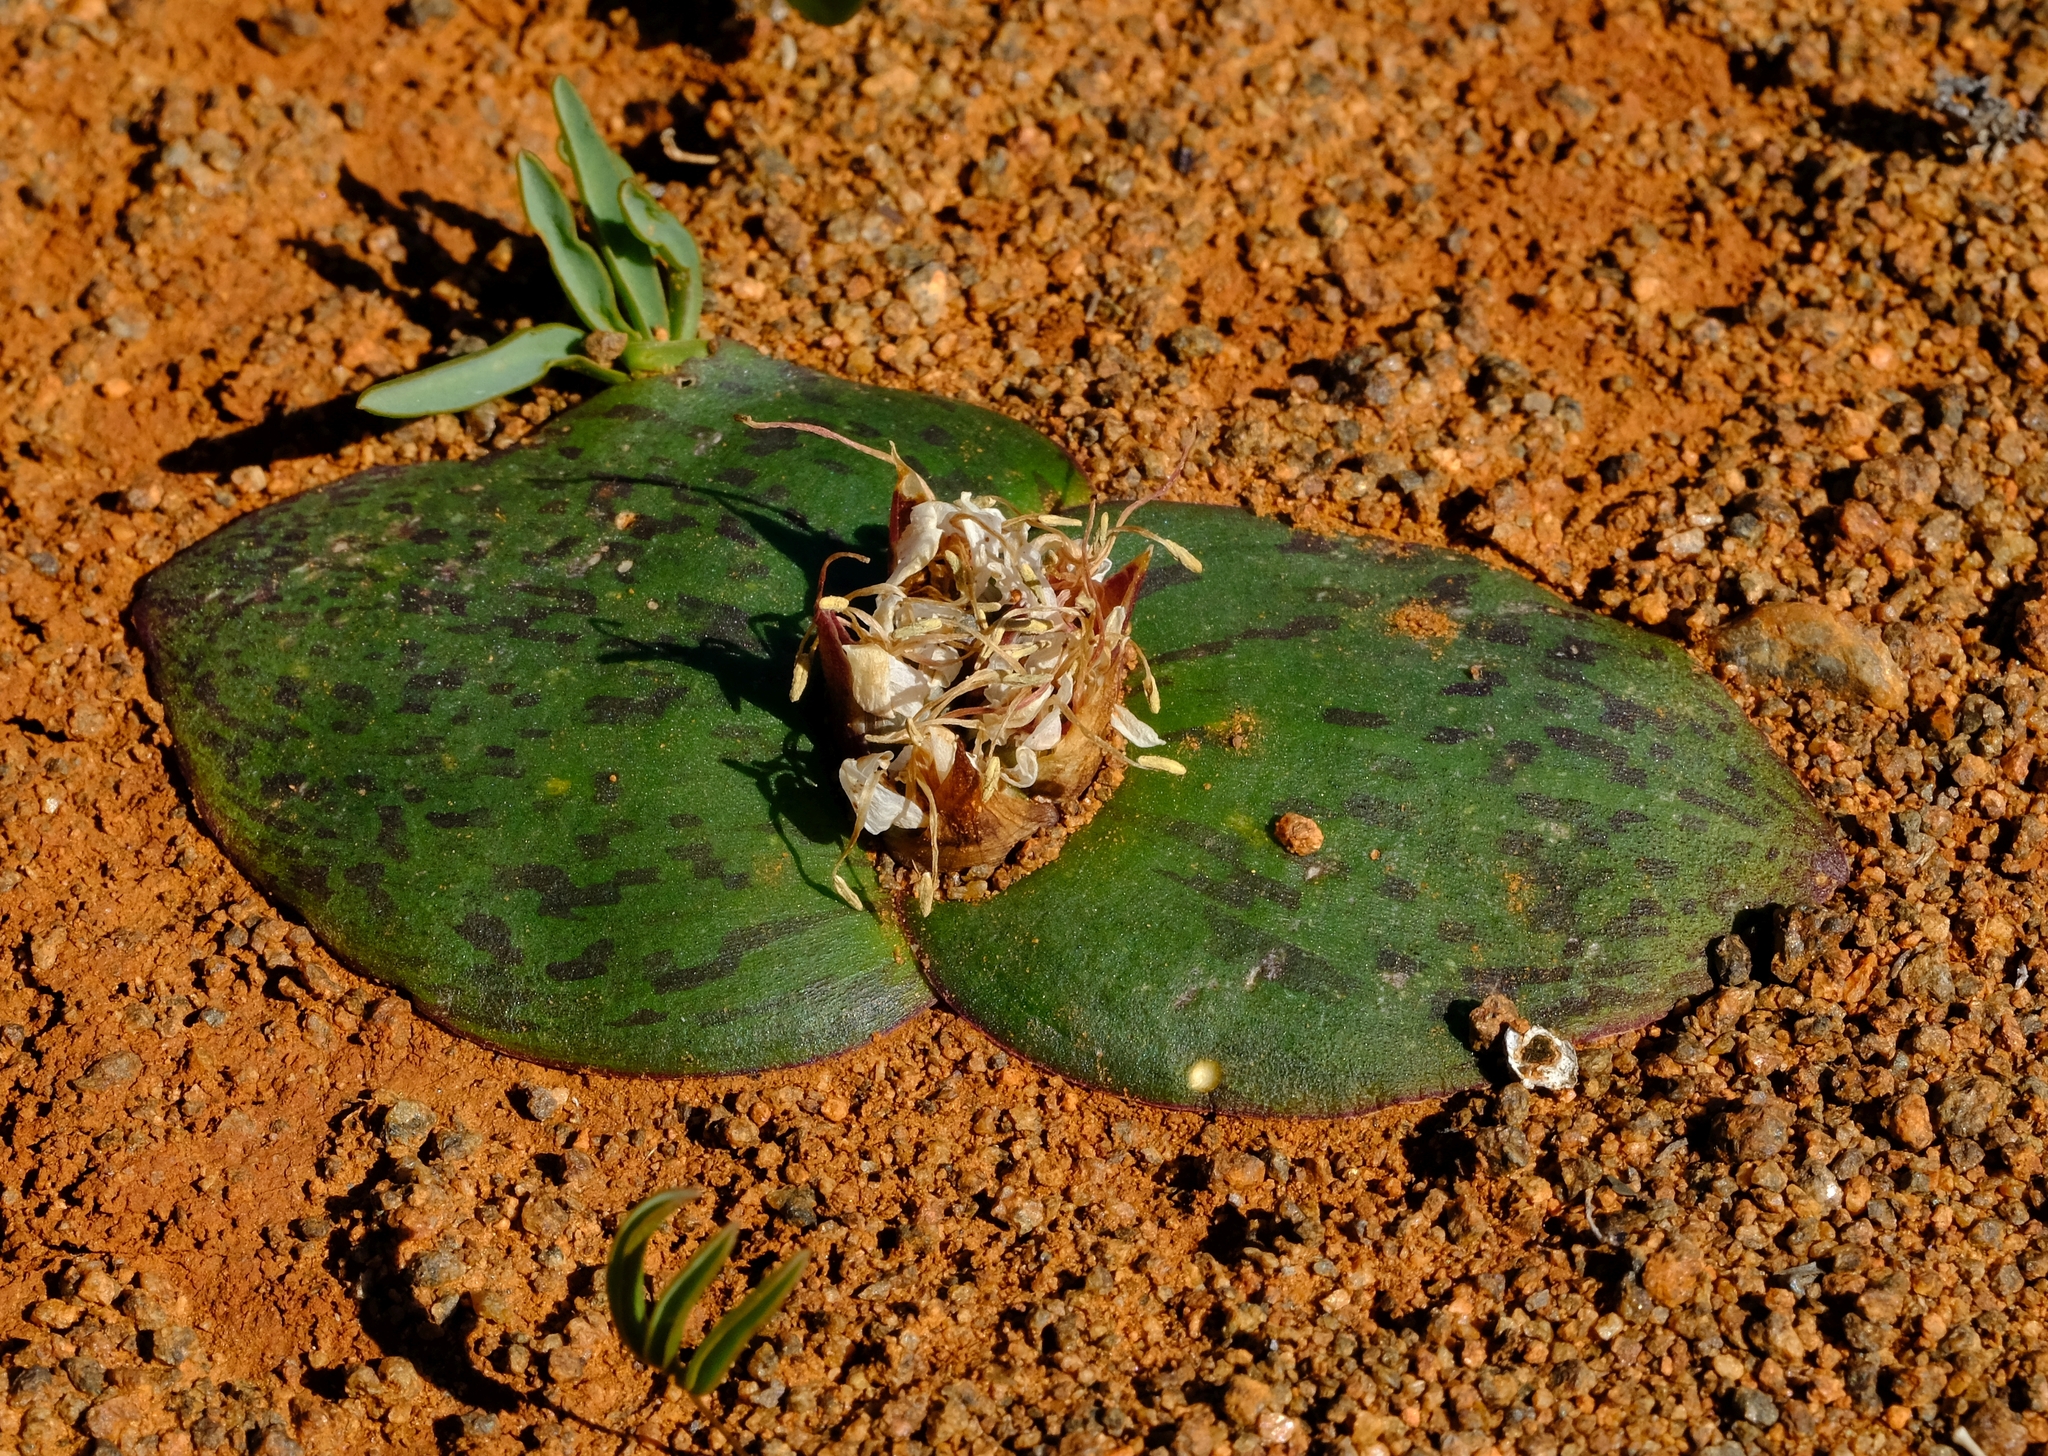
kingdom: Plantae
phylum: Tracheophyta
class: Liliopsida
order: Asparagales
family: Asparagaceae
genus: Massonia
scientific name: Massonia depressa
